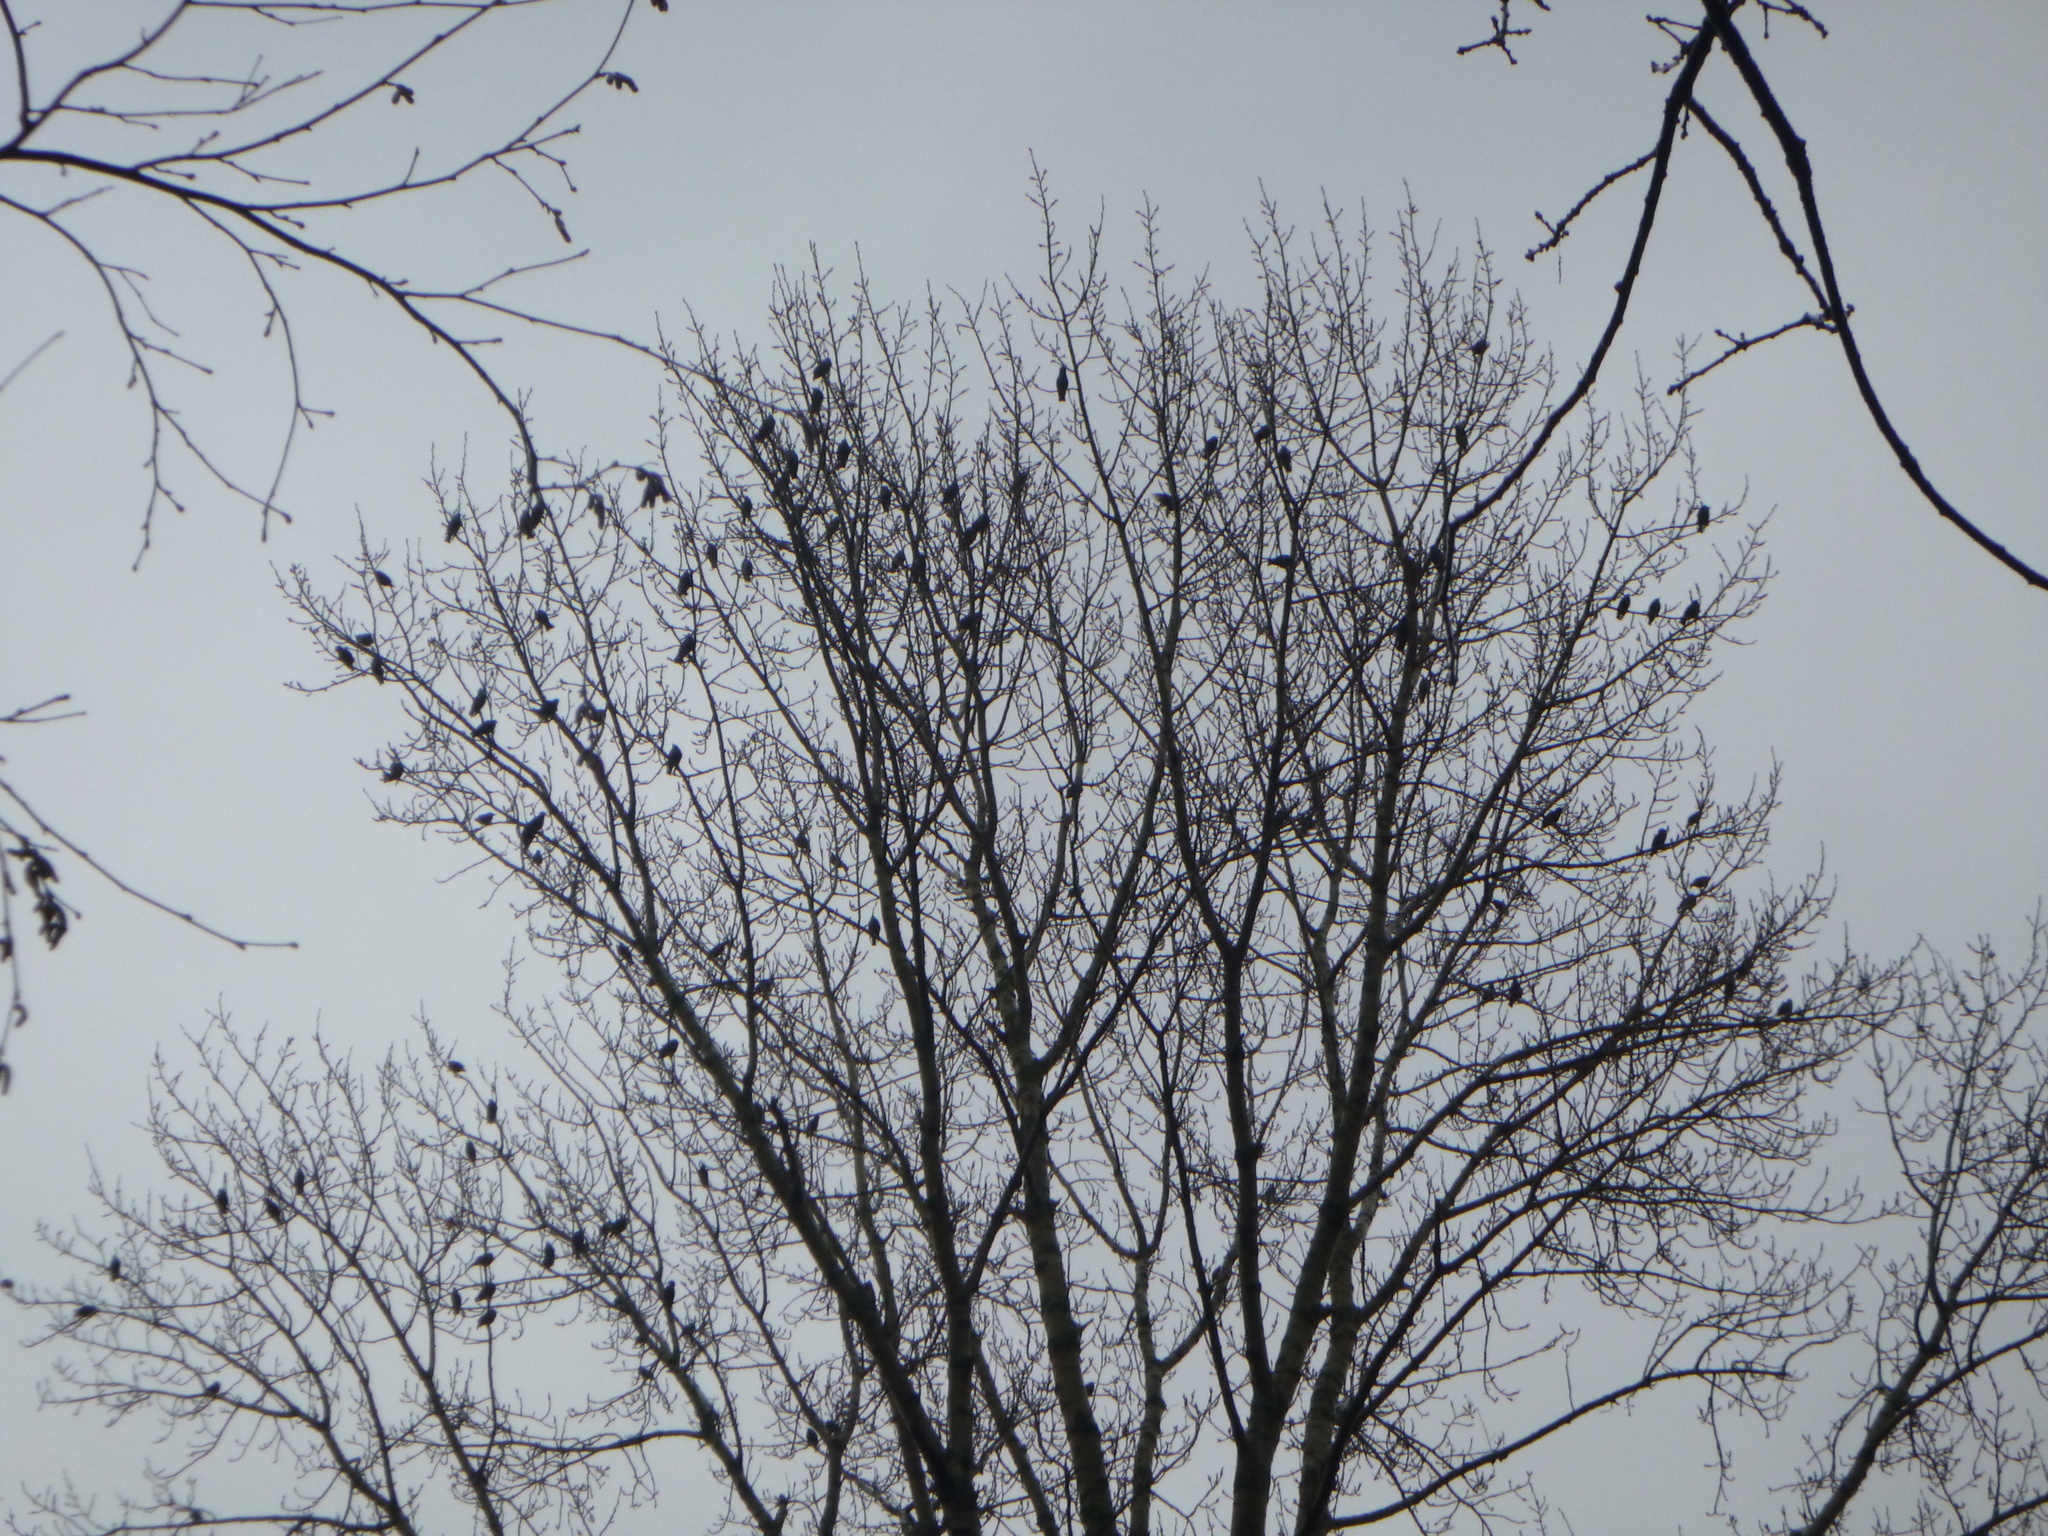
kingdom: Animalia
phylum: Chordata
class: Aves
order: Passeriformes
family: Sturnidae
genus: Sturnus
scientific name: Sturnus vulgaris
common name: Common starling
